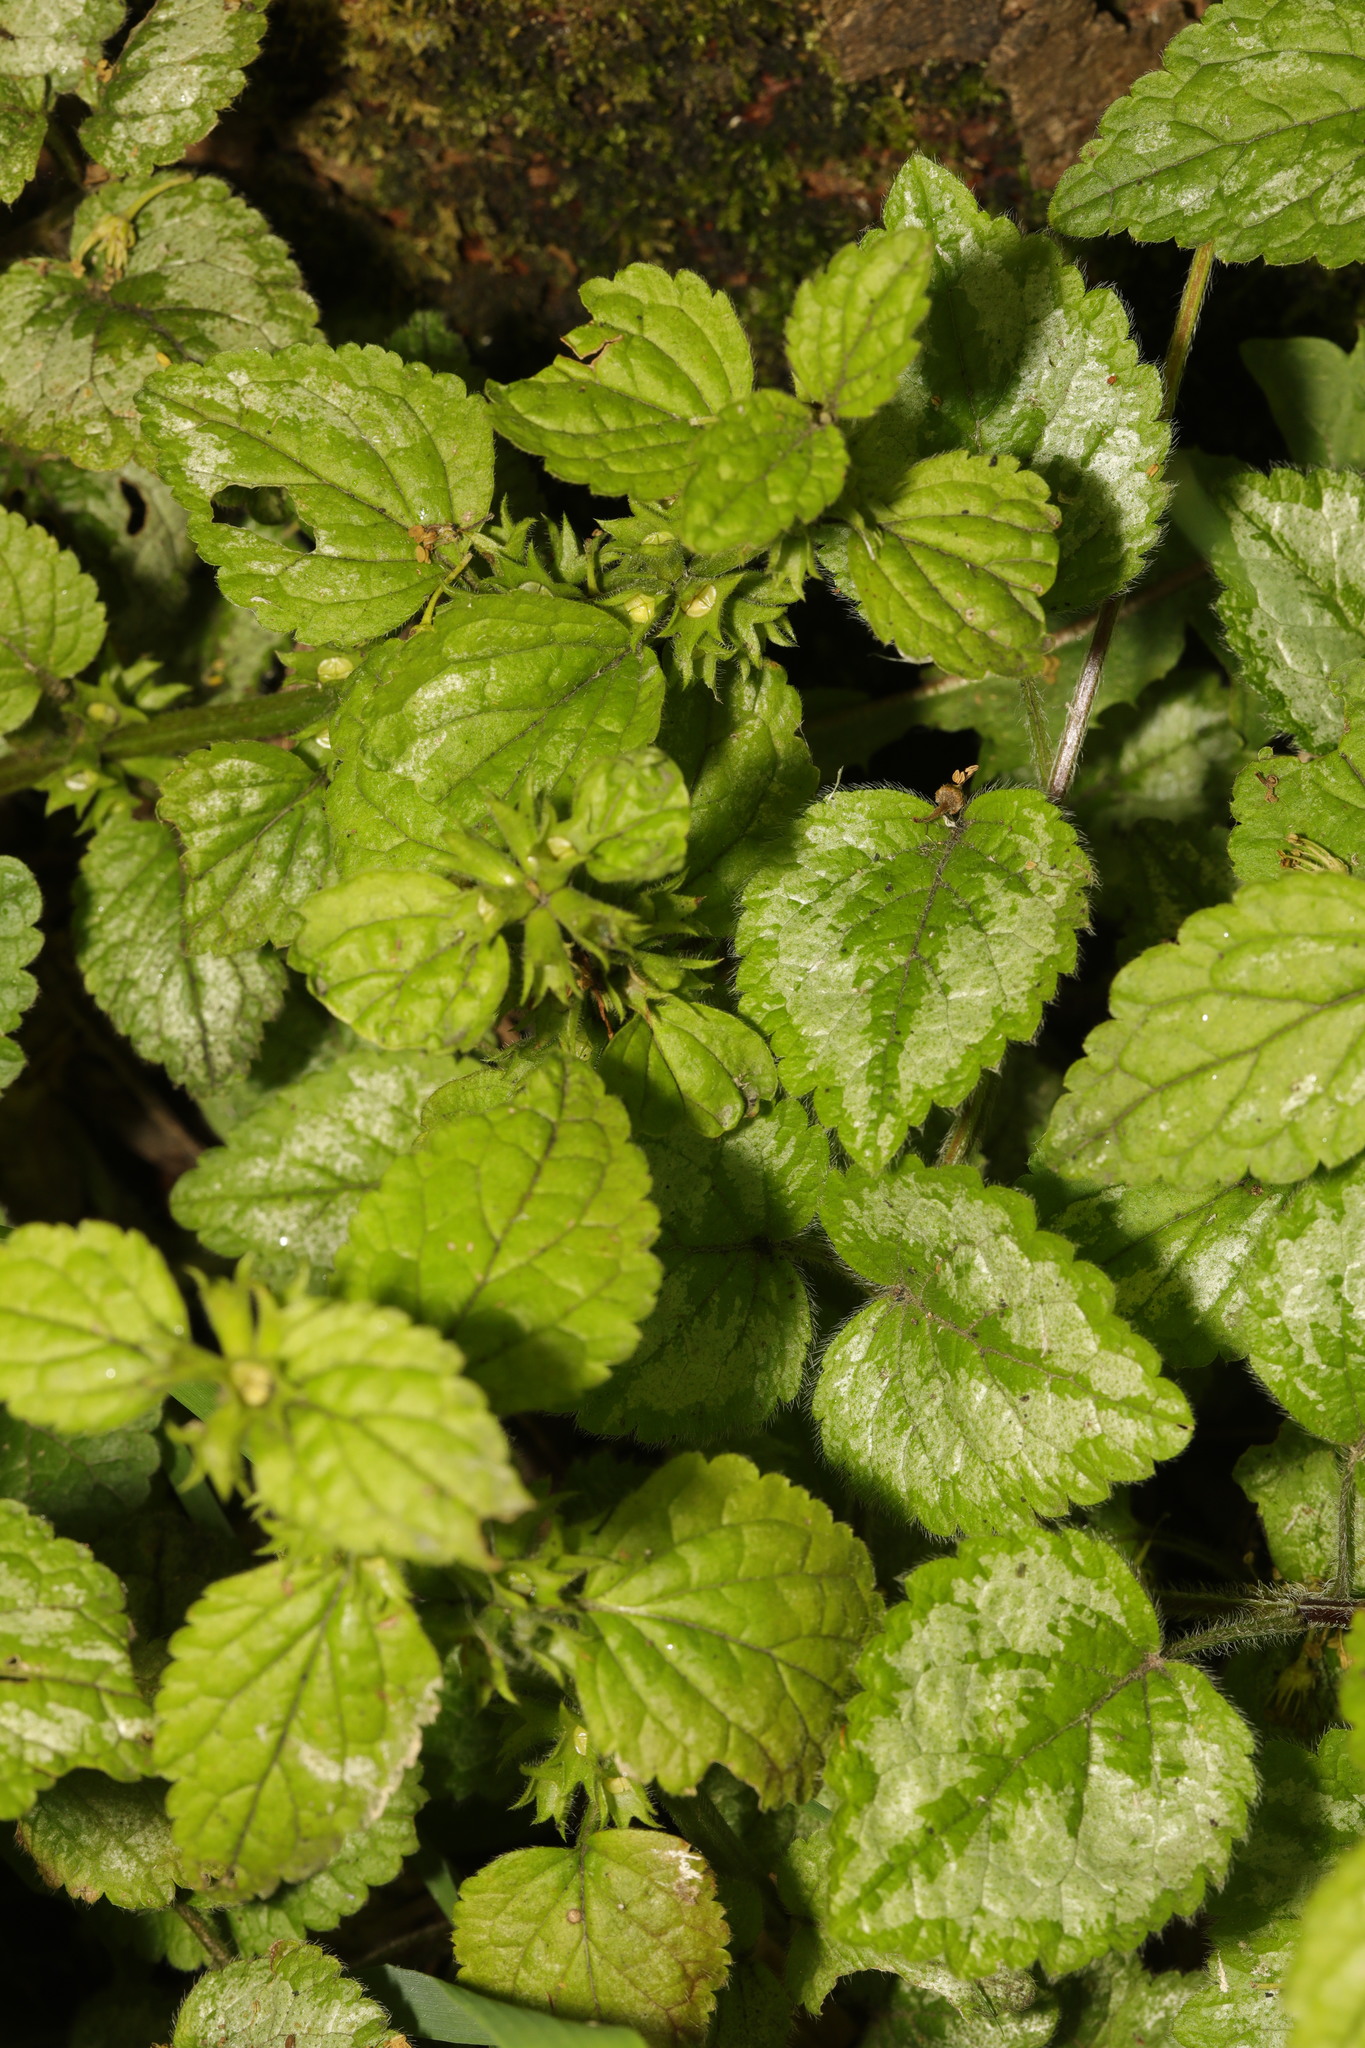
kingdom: Plantae
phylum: Tracheophyta
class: Magnoliopsida
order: Lamiales
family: Lamiaceae
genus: Lamium
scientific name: Lamium galeobdolon
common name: Yellow archangel
